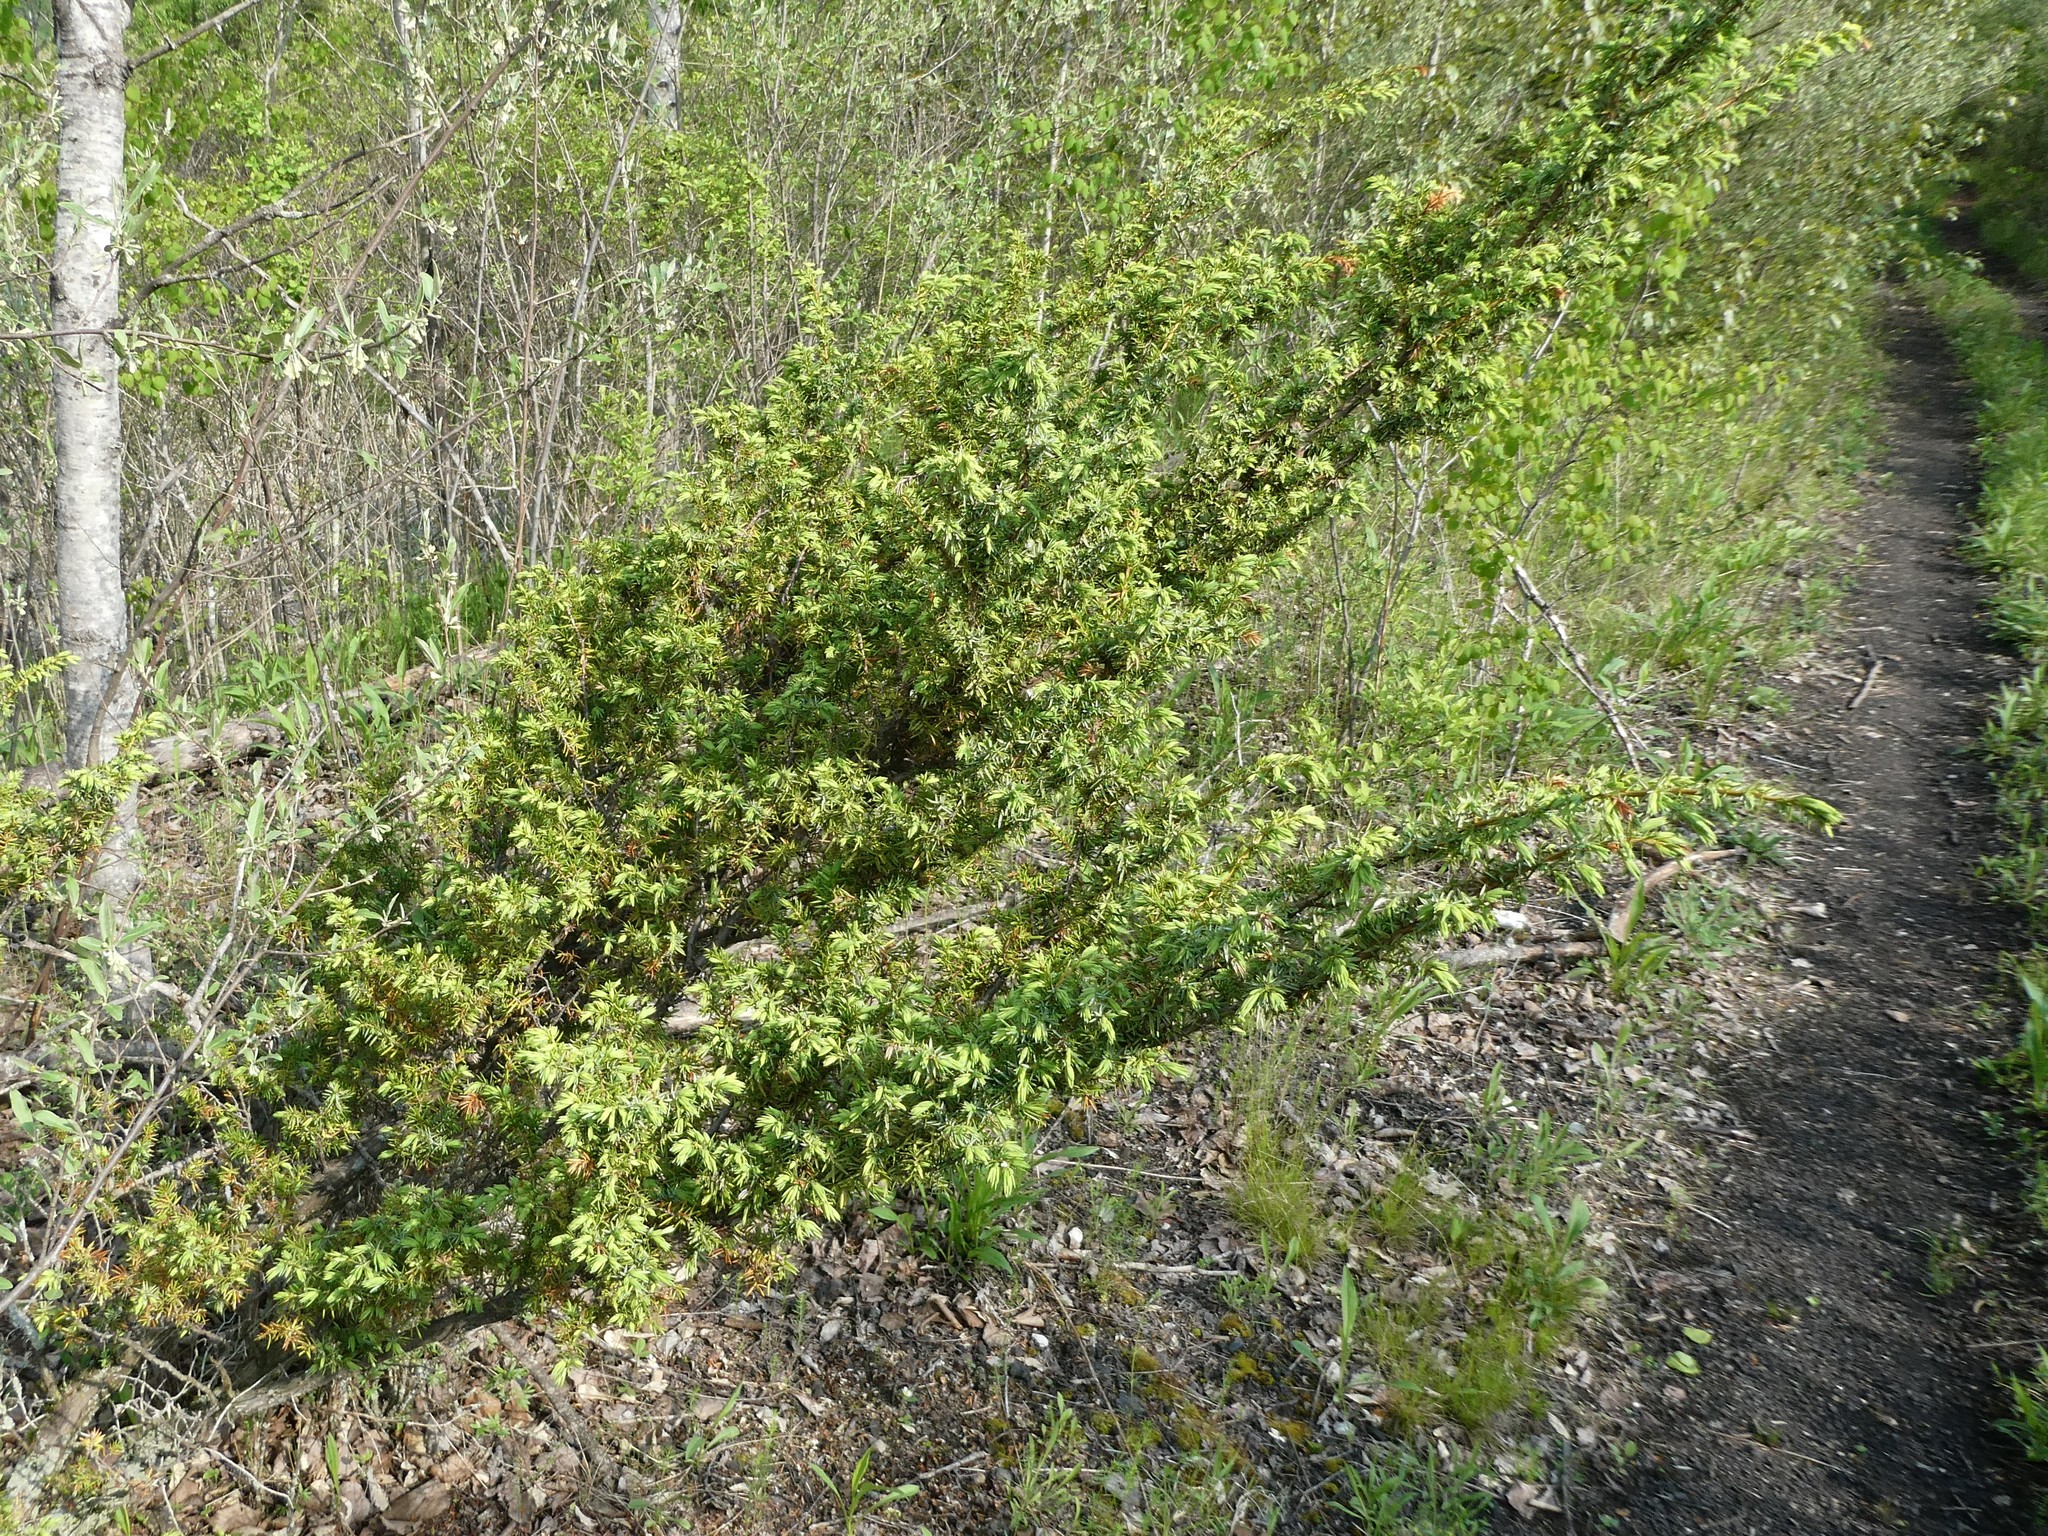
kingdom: Plantae
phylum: Tracheophyta
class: Pinopsida
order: Pinales
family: Cupressaceae
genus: Juniperus
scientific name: Juniperus communis
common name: Common juniper
